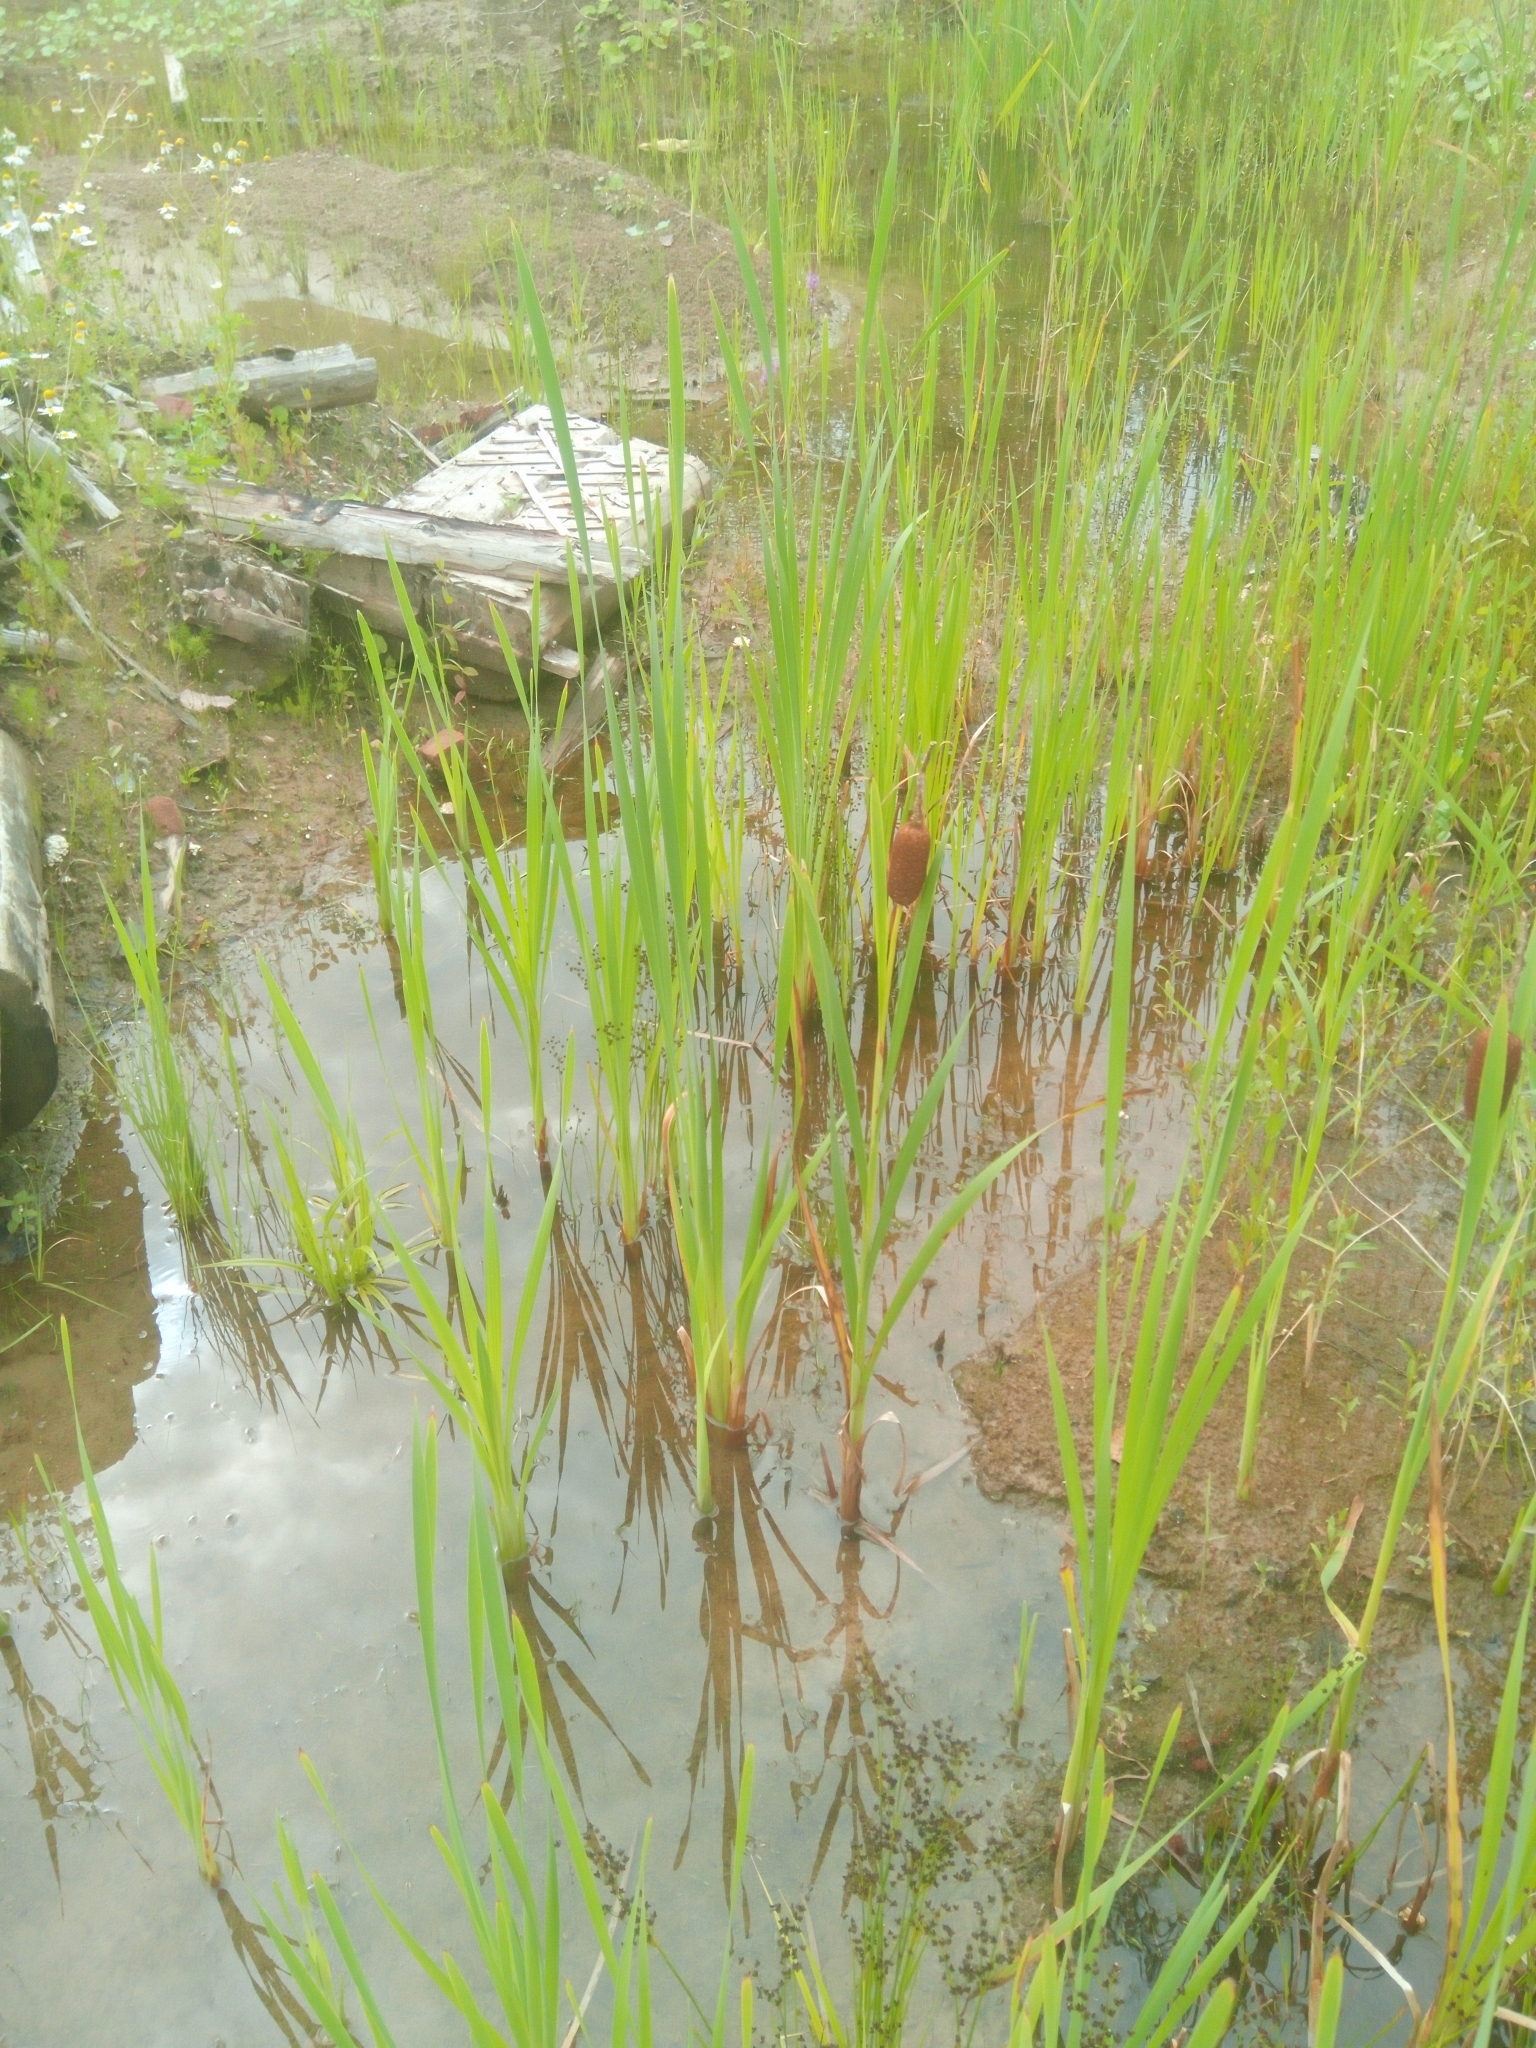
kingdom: Plantae
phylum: Tracheophyta
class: Liliopsida
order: Poales
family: Typhaceae
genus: Typha
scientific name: Typha latifolia
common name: Broadleaf cattail
